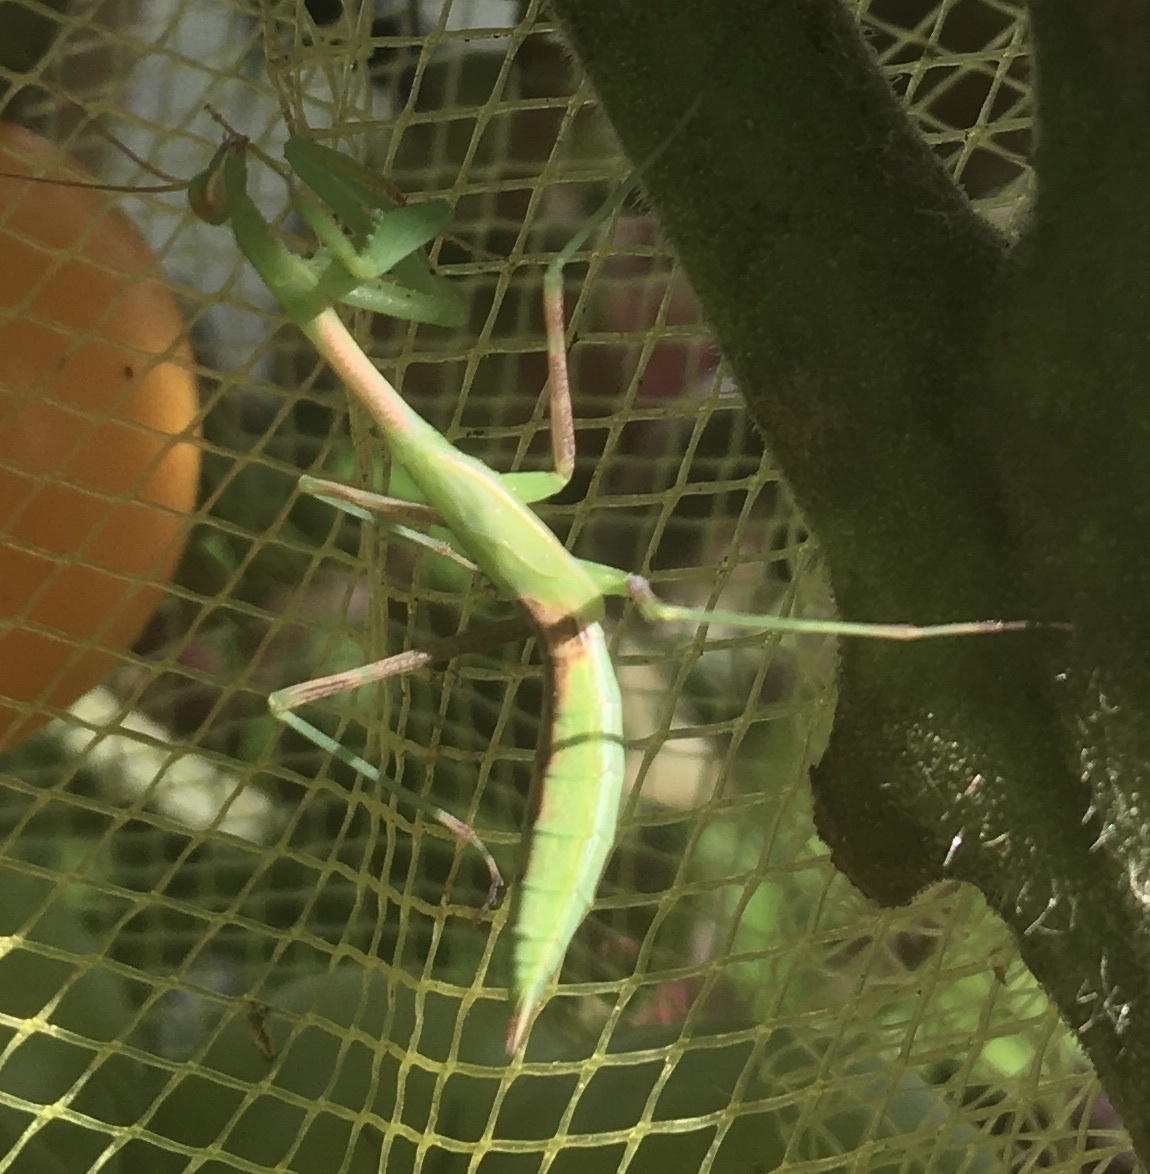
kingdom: Animalia
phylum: Arthropoda
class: Insecta
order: Mantodea
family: Miomantidae
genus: Miomantis
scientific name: Miomantis caffra
